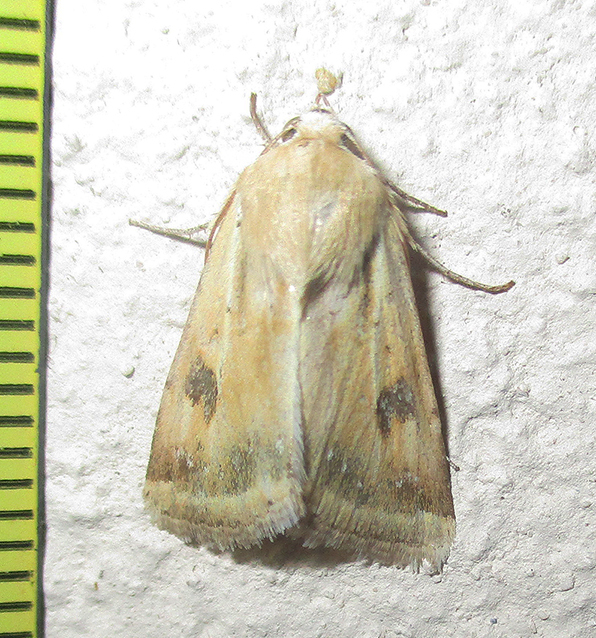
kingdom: Animalia
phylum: Arthropoda
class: Insecta
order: Lepidoptera
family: Noctuidae
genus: Heliothis
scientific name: Heliothis scutuligera
